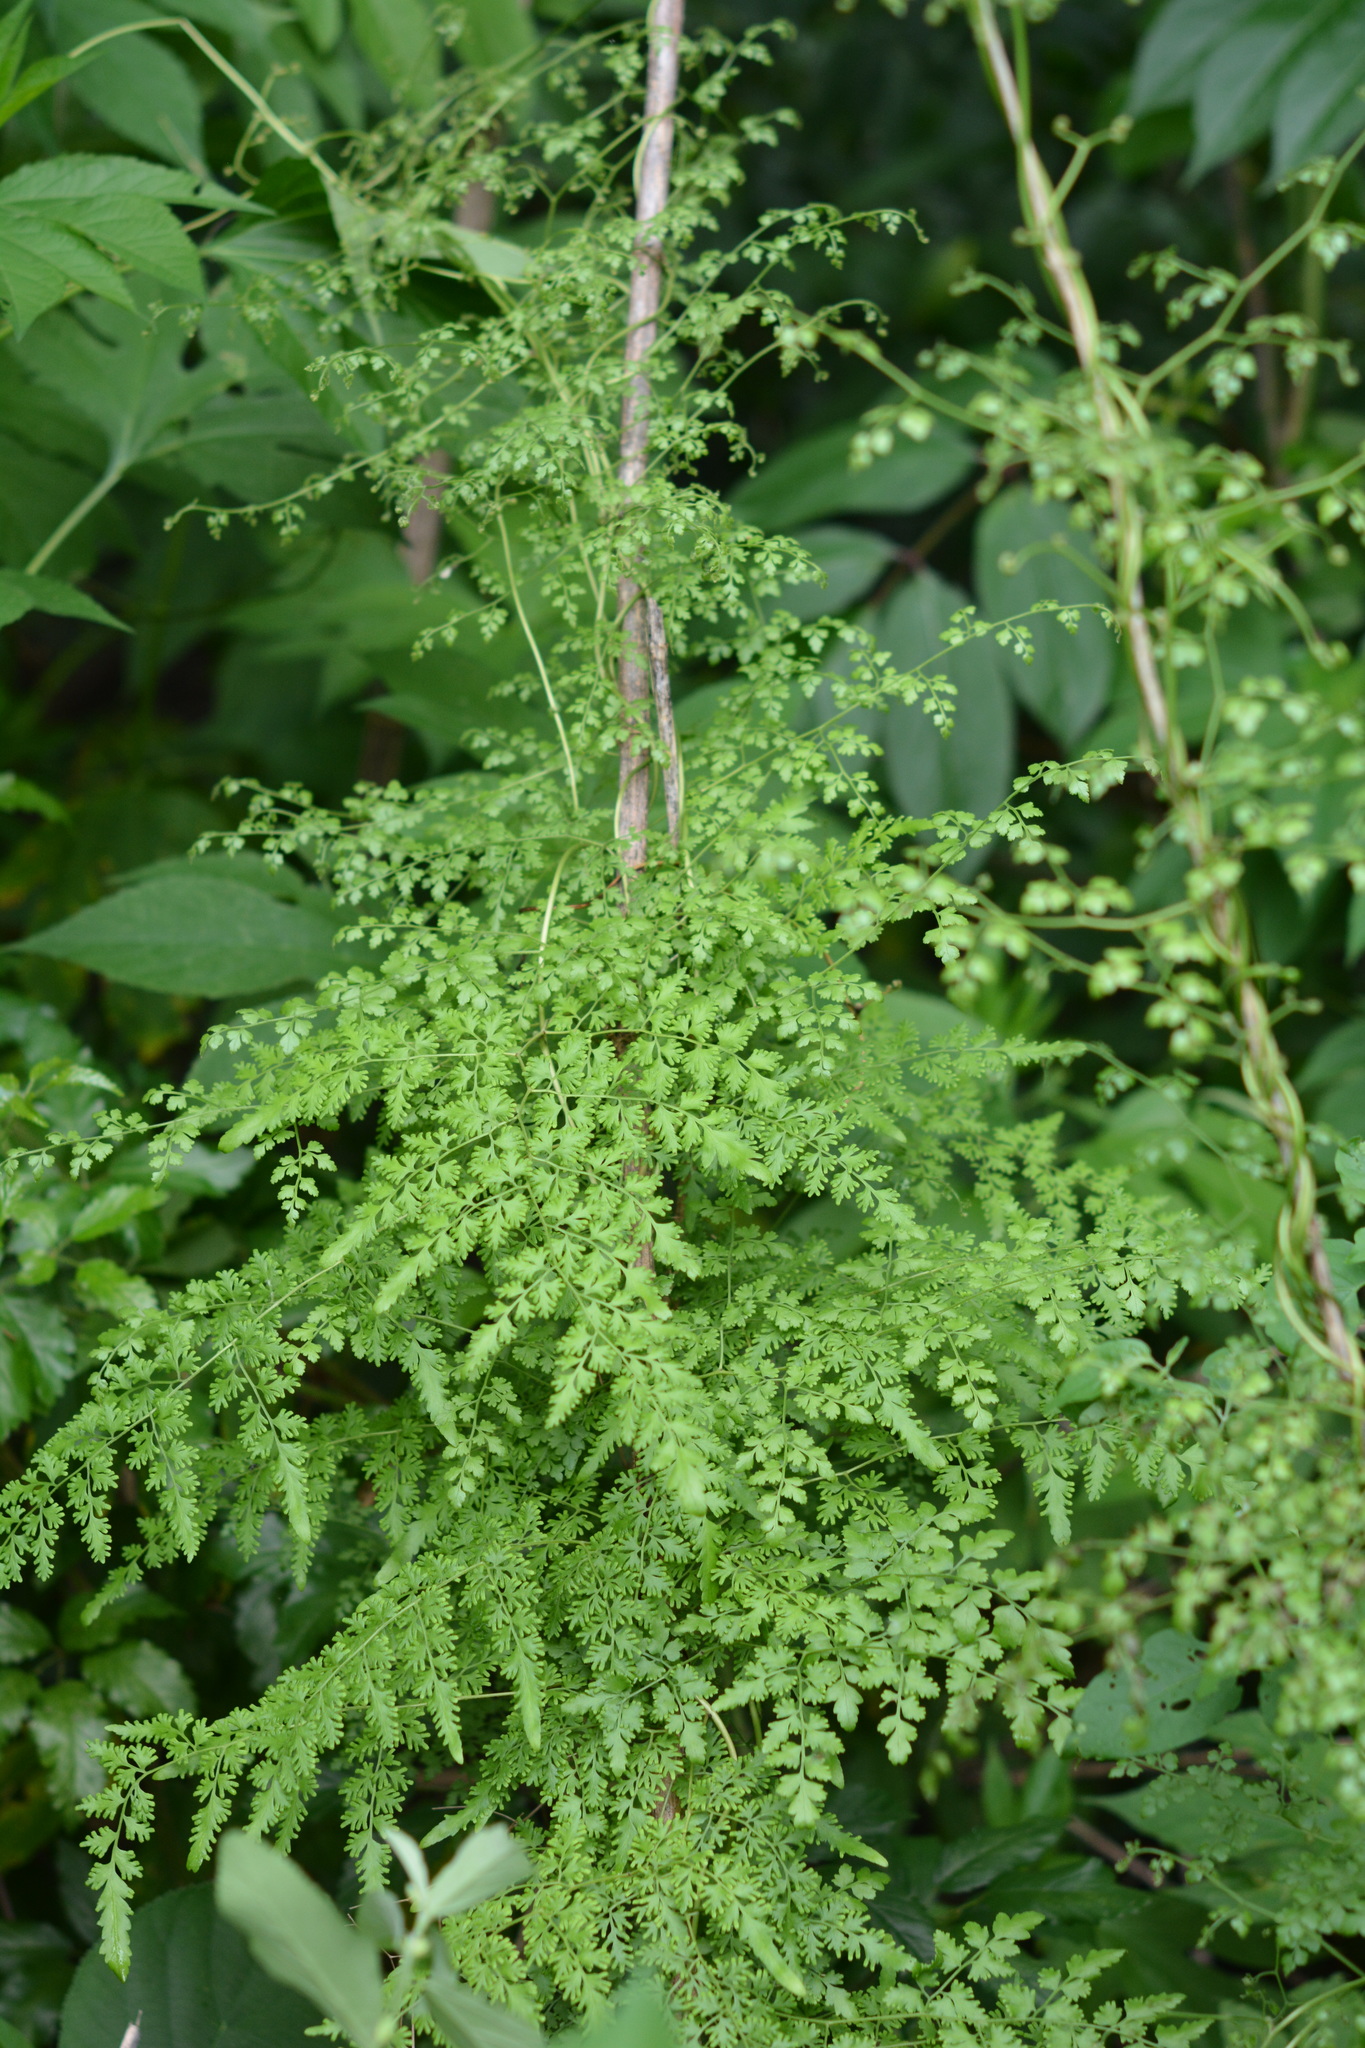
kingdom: Plantae
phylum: Tracheophyta
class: Polypodiopsida
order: Schizaeales
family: Lygodiaceae
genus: Lygodium
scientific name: Lygodium japonicum
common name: Japanese climbing fern
